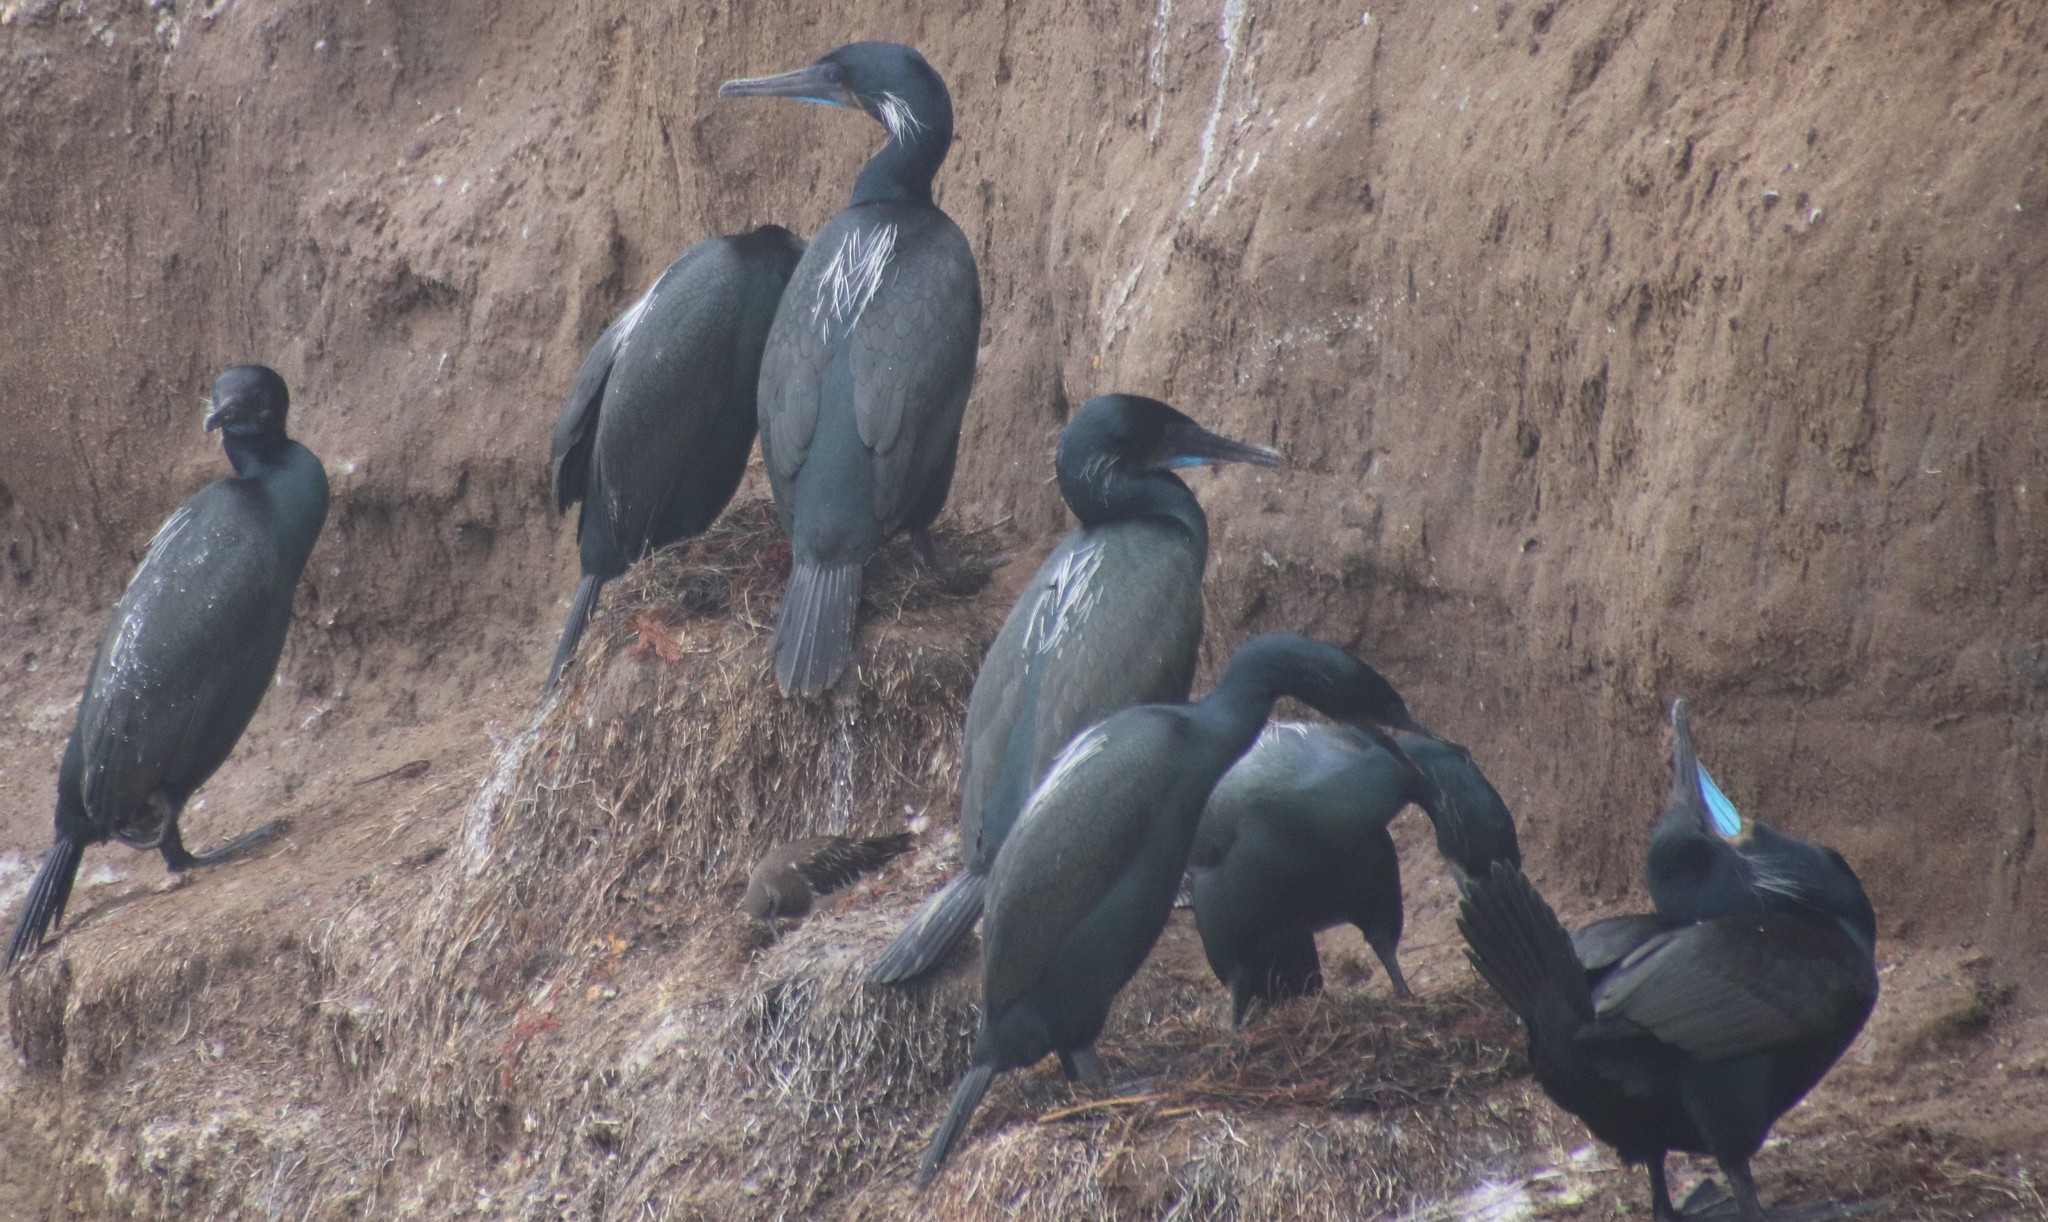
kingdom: Animalia
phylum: Chordata
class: Aves
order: Suliformes
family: Phalacrocoracidae
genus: Urile
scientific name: Urile penicillatus
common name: Brandt's cormorant
